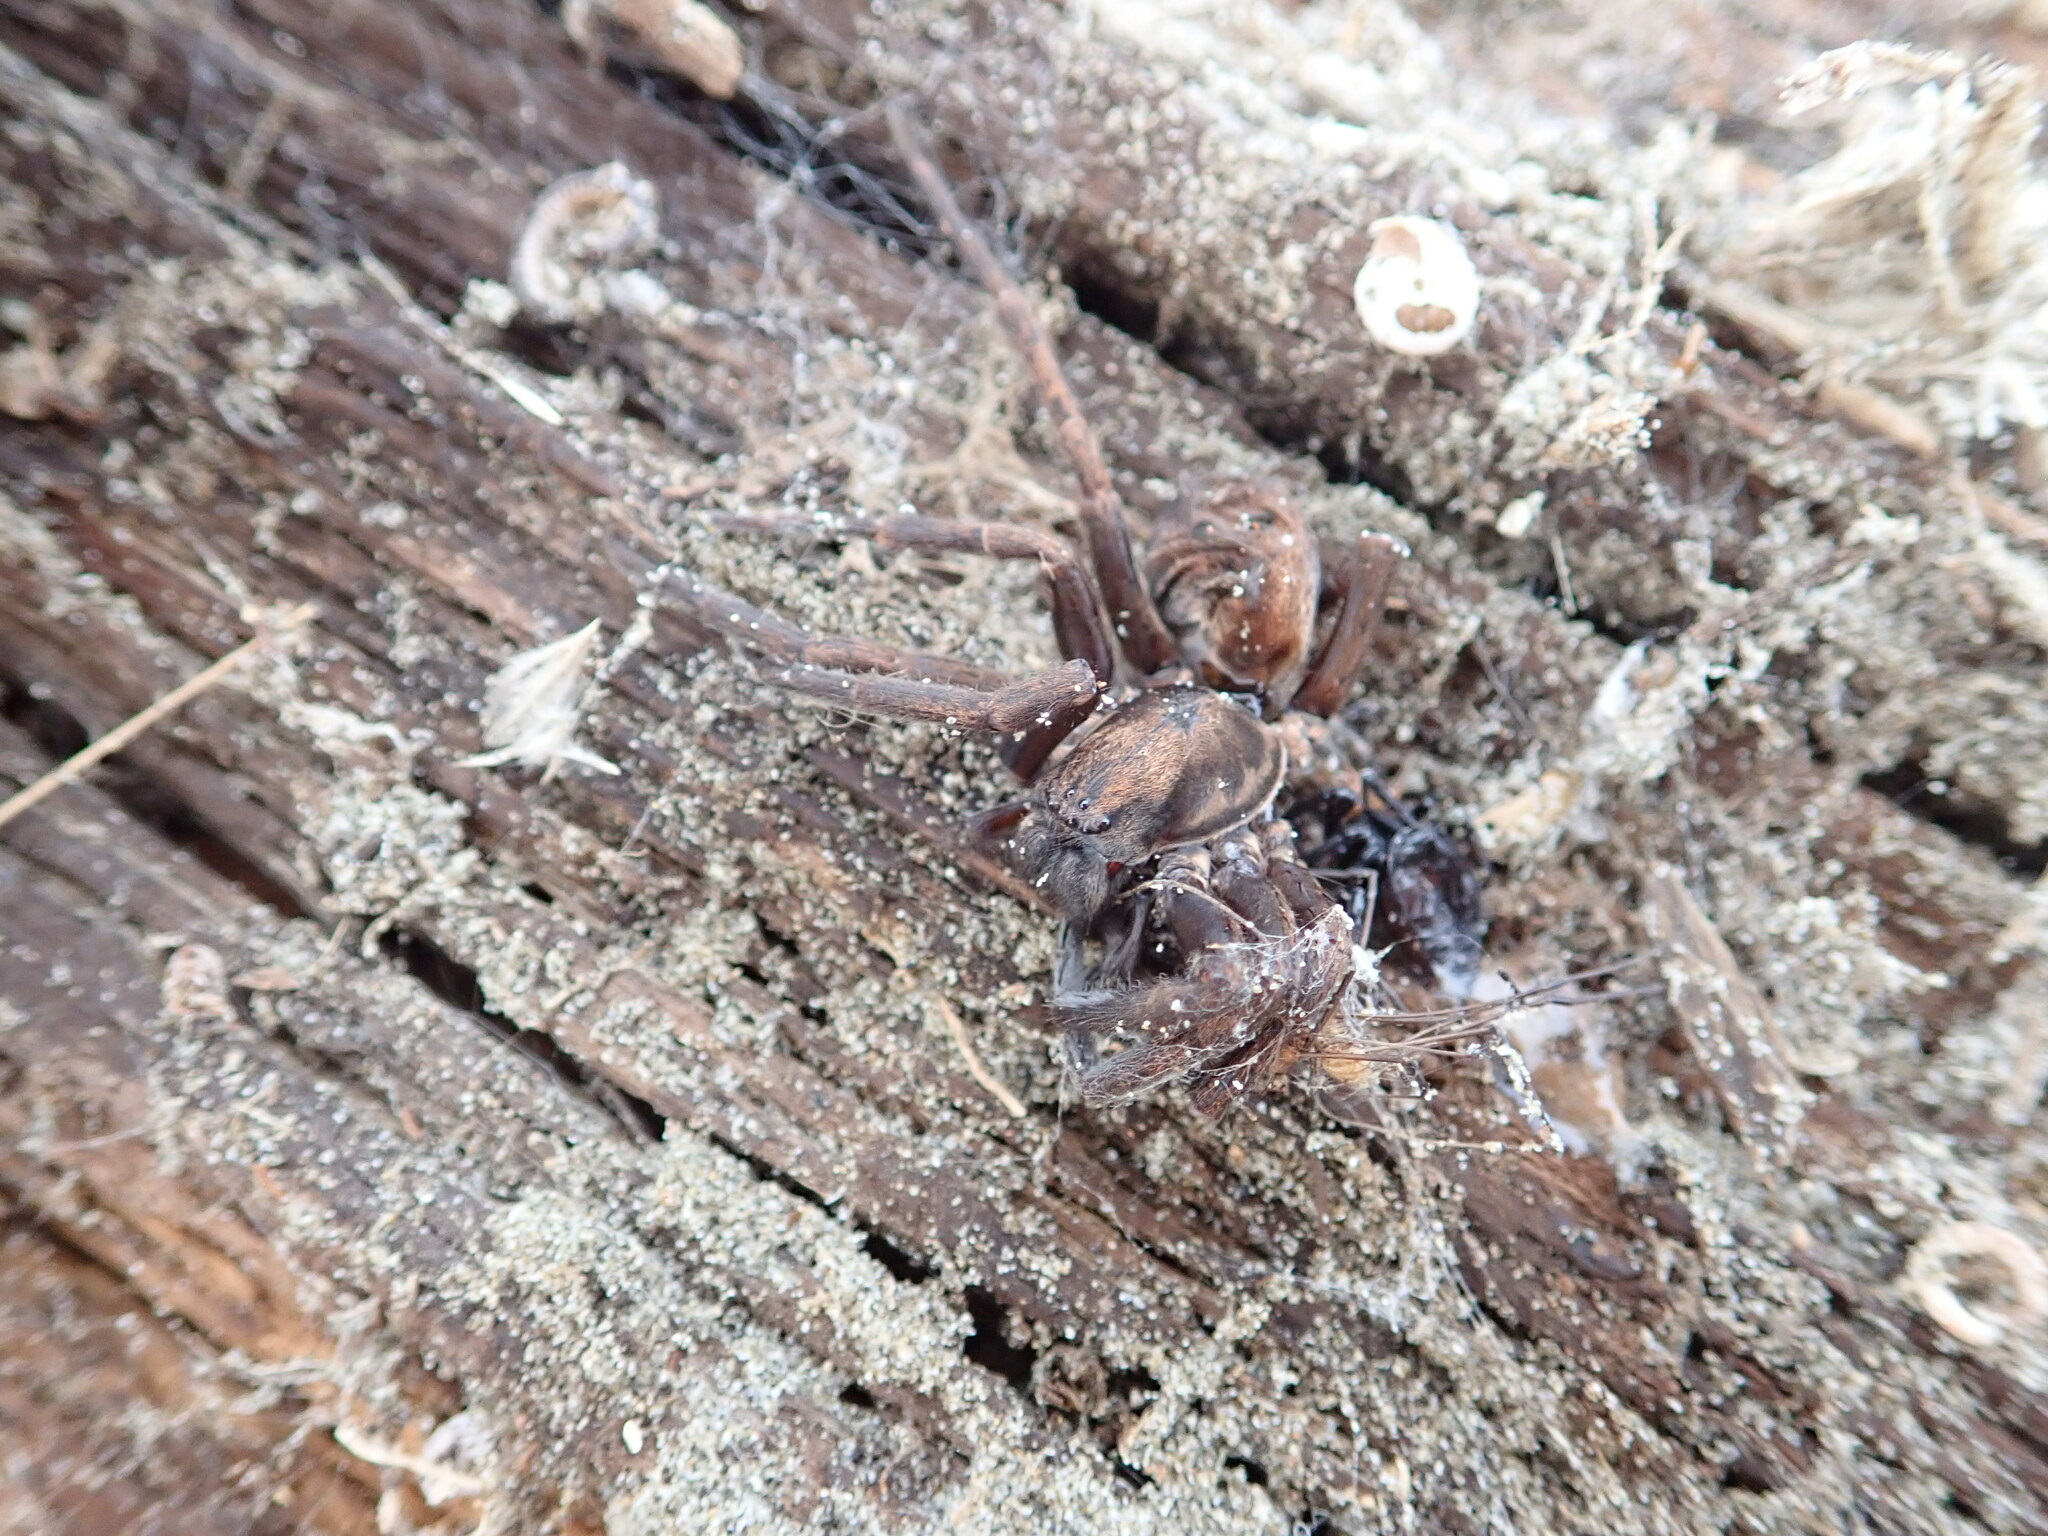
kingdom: Animalia
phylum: Arthropoda
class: Arachnida
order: Araneae
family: Zoropsidae
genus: Uliodon
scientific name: Uliodon albopunctatus
